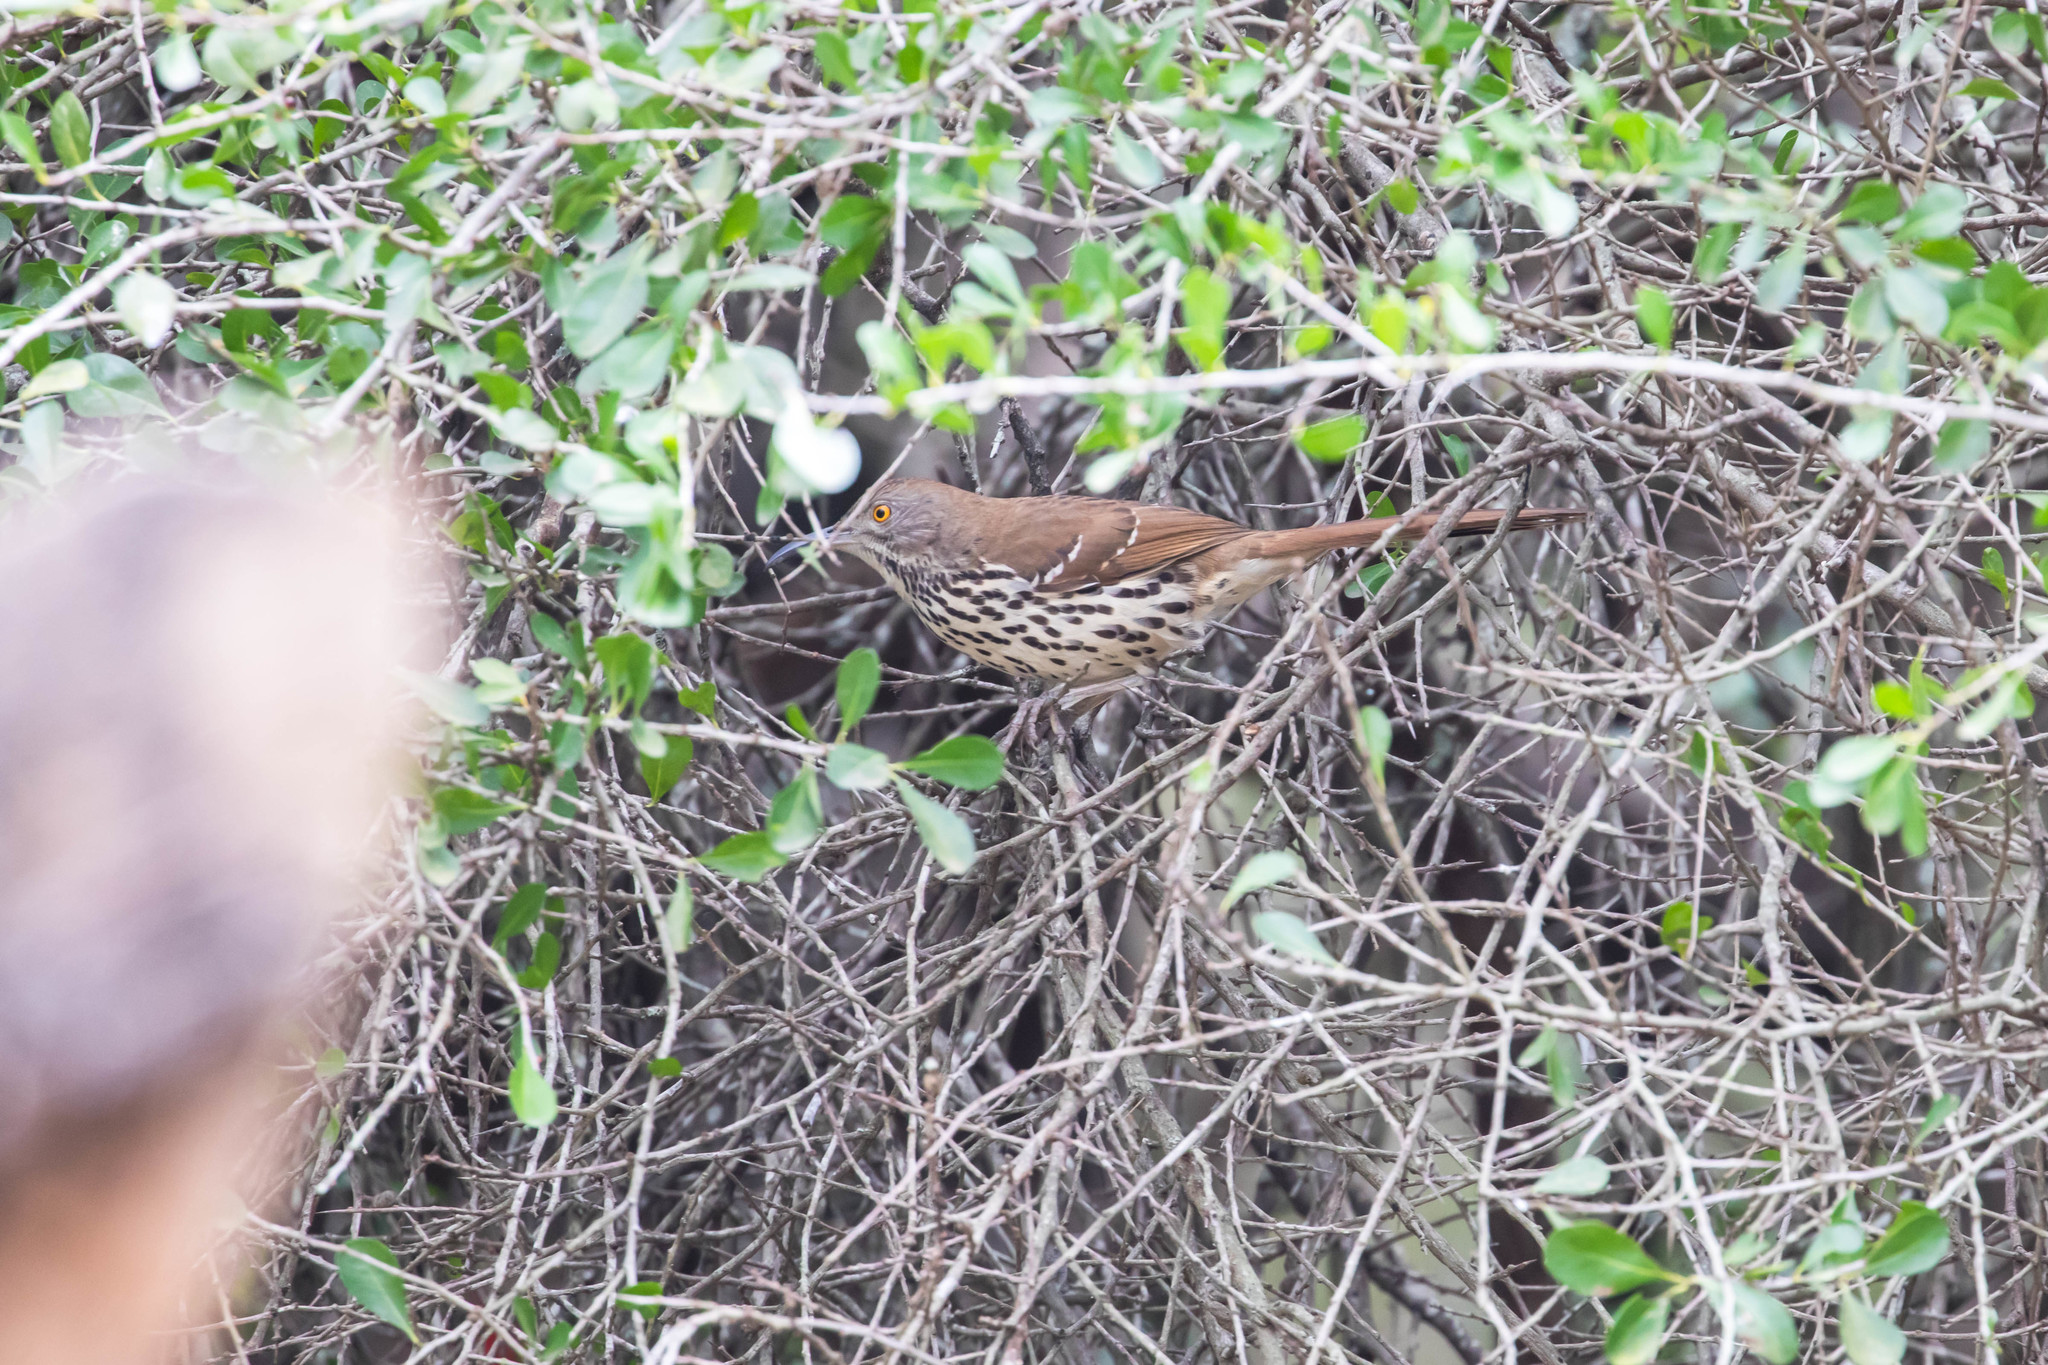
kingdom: Animalia
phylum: Chordata
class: Aves
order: Passeriformes
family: Mimidae
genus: Toxostoma
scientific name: Toxostoma longirostre
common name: Long-billed thrasher
